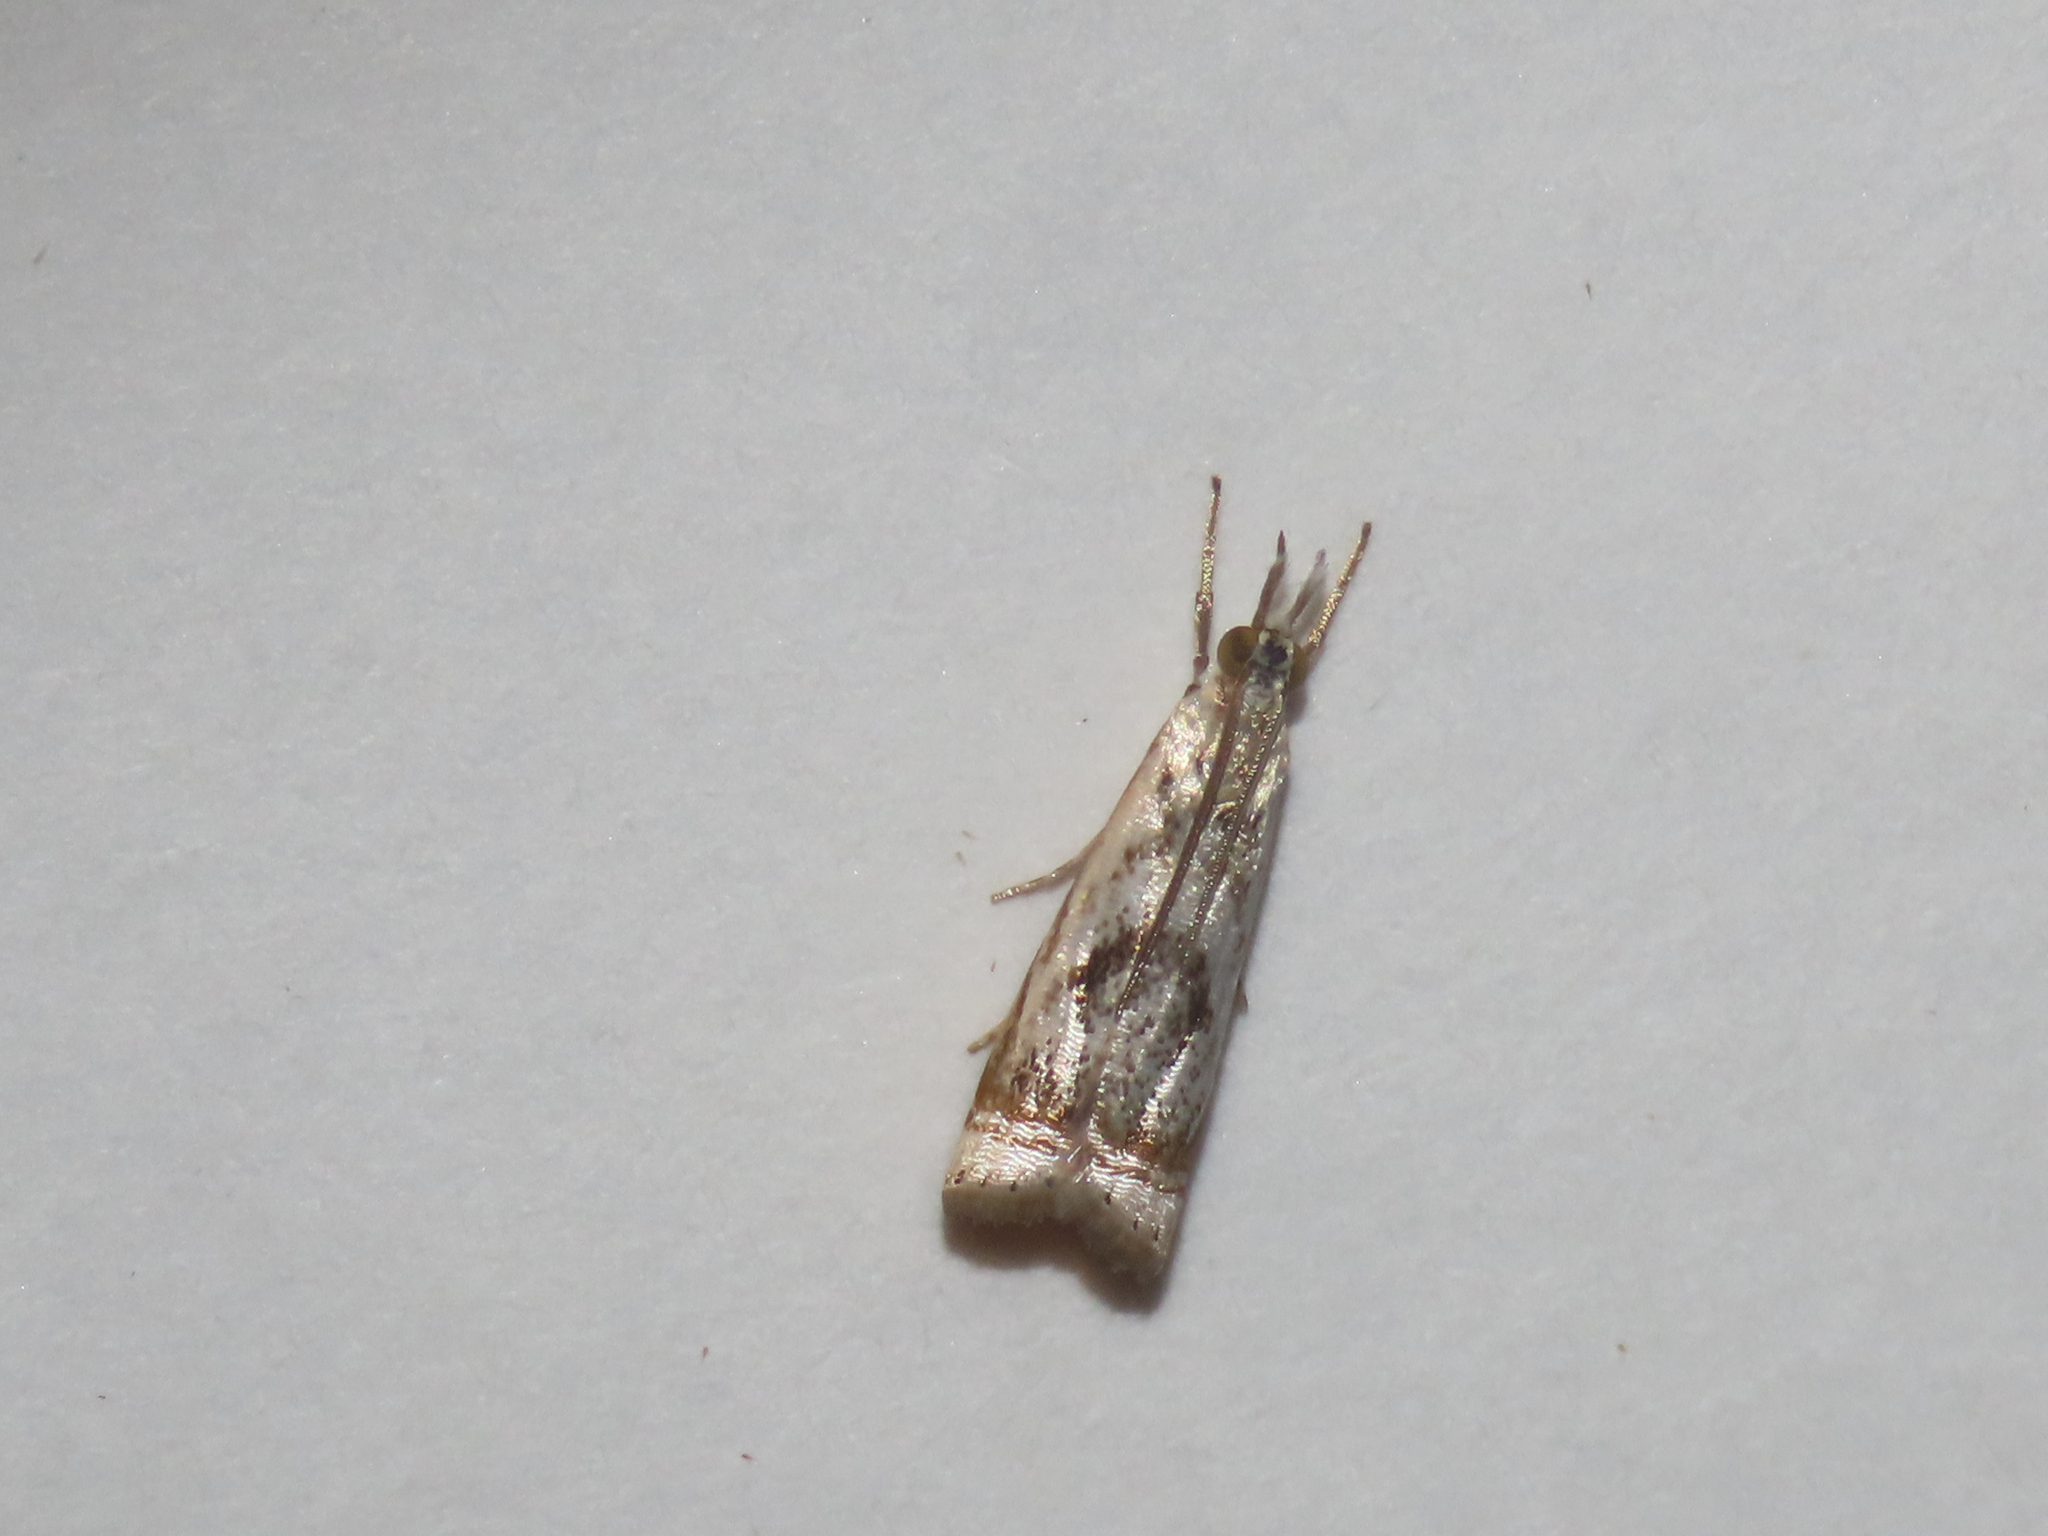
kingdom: Animalia
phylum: Arthropoda
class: Insecta
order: Lepidoptera
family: Crambidae
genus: Microcrambus
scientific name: Microcrambus elegans
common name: Elegant grass-veneer
